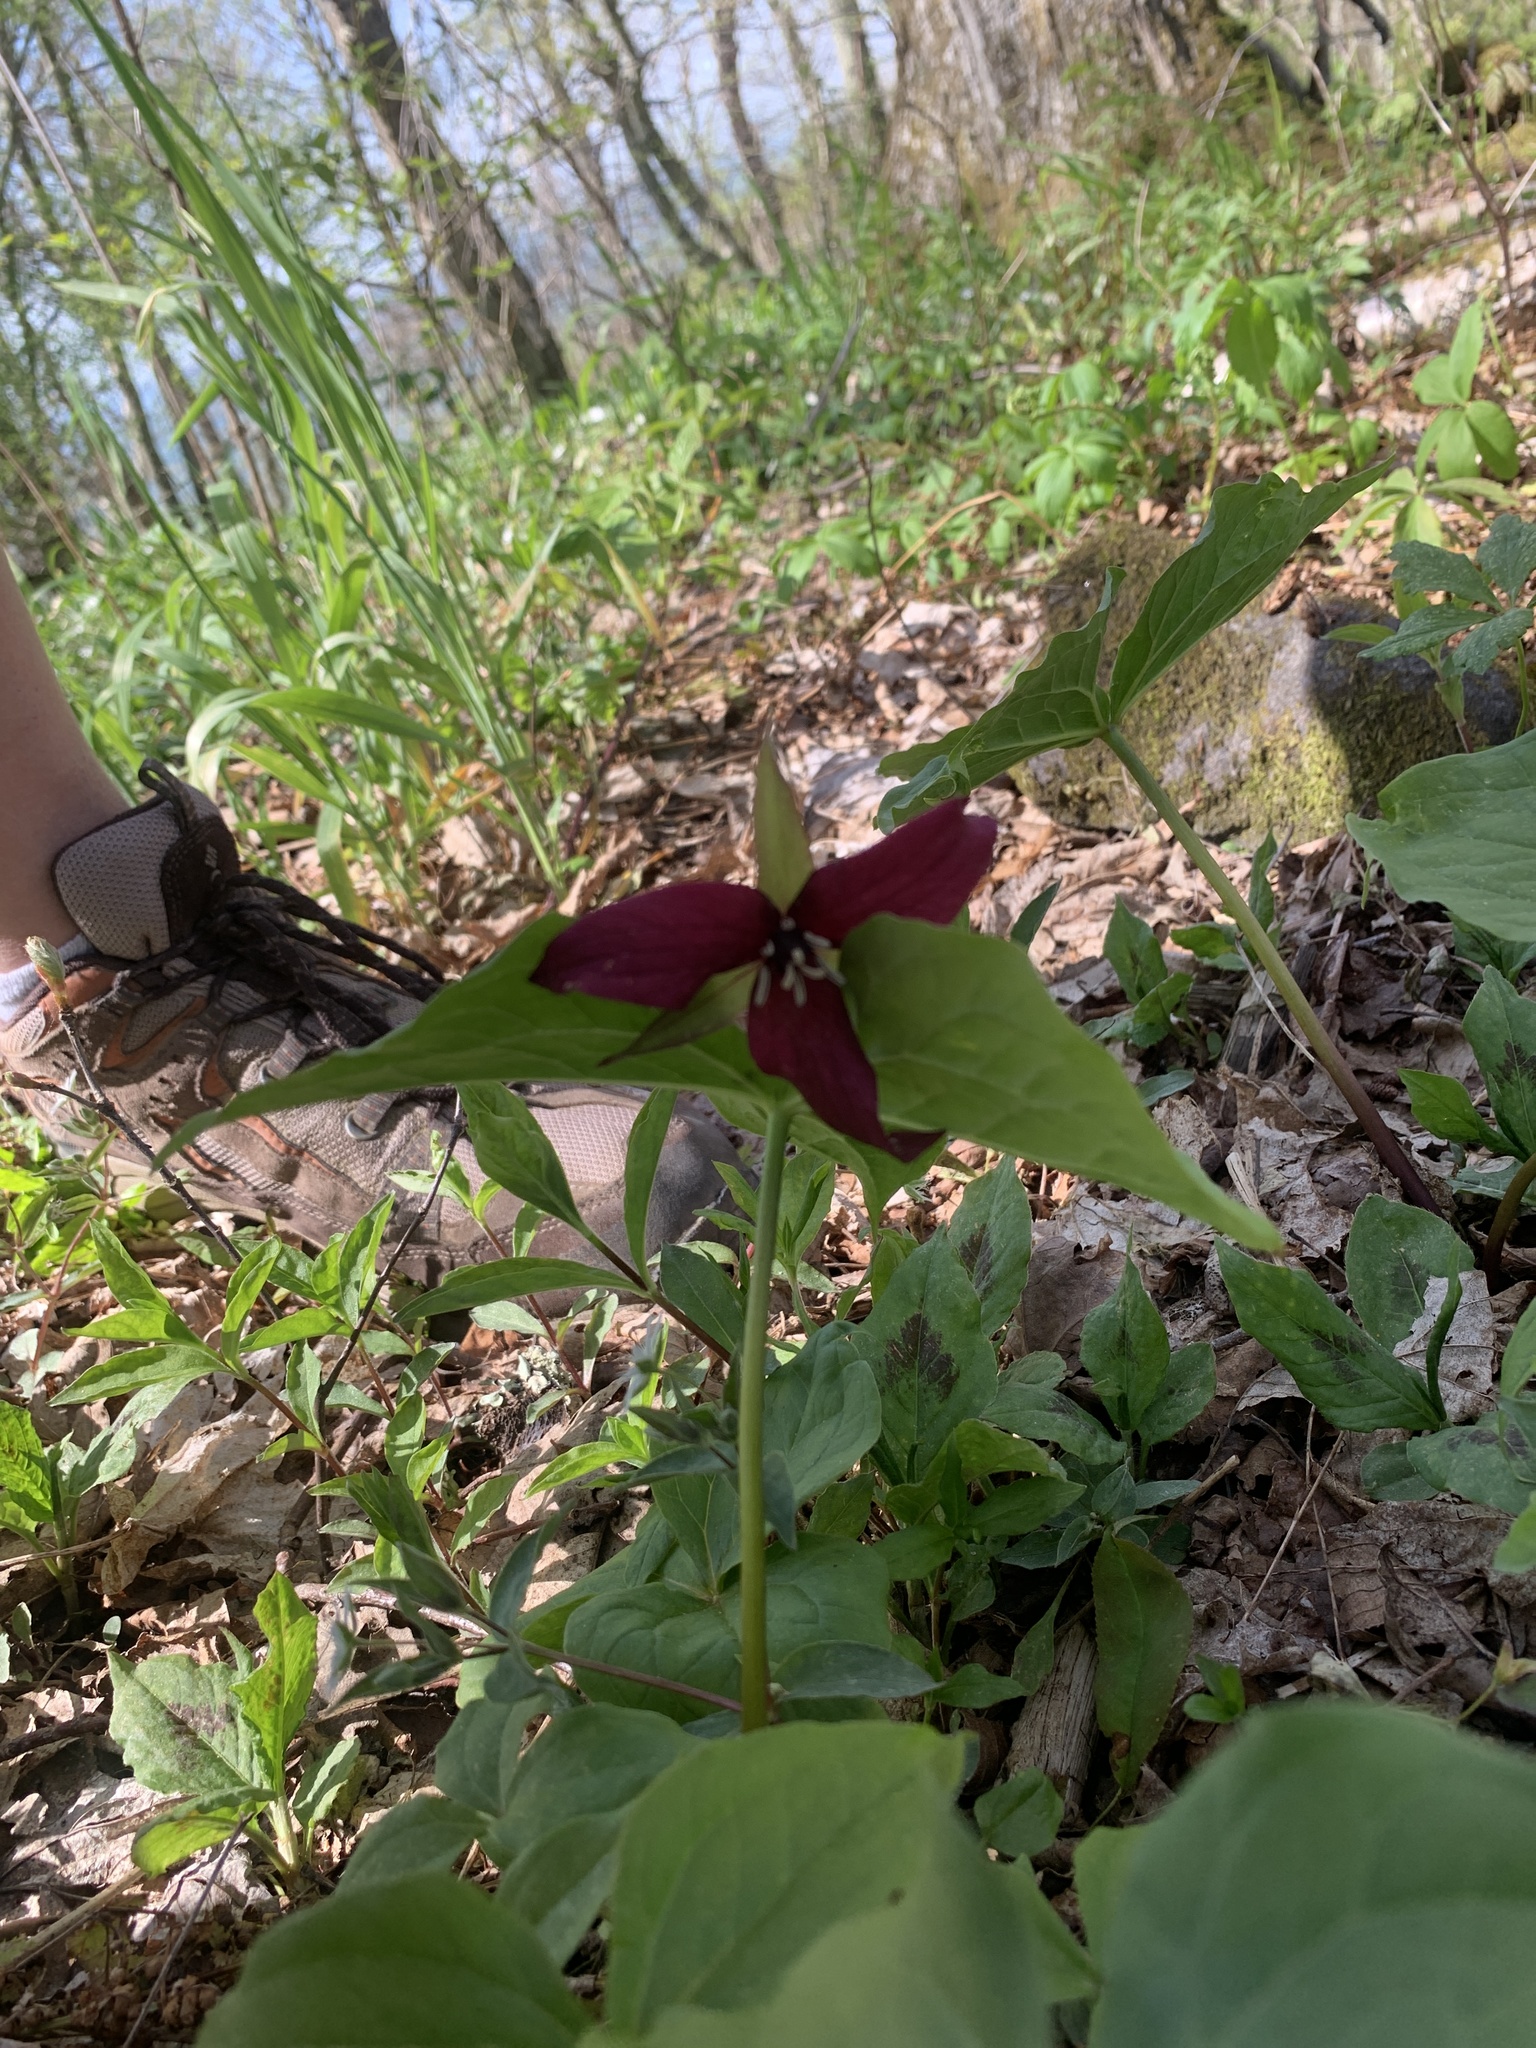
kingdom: Plantae
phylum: Tracheophyta
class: Liliopsida
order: Liliales
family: Melanthiaceae
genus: Trillium
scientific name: Trillium erectum
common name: Purple trillium
